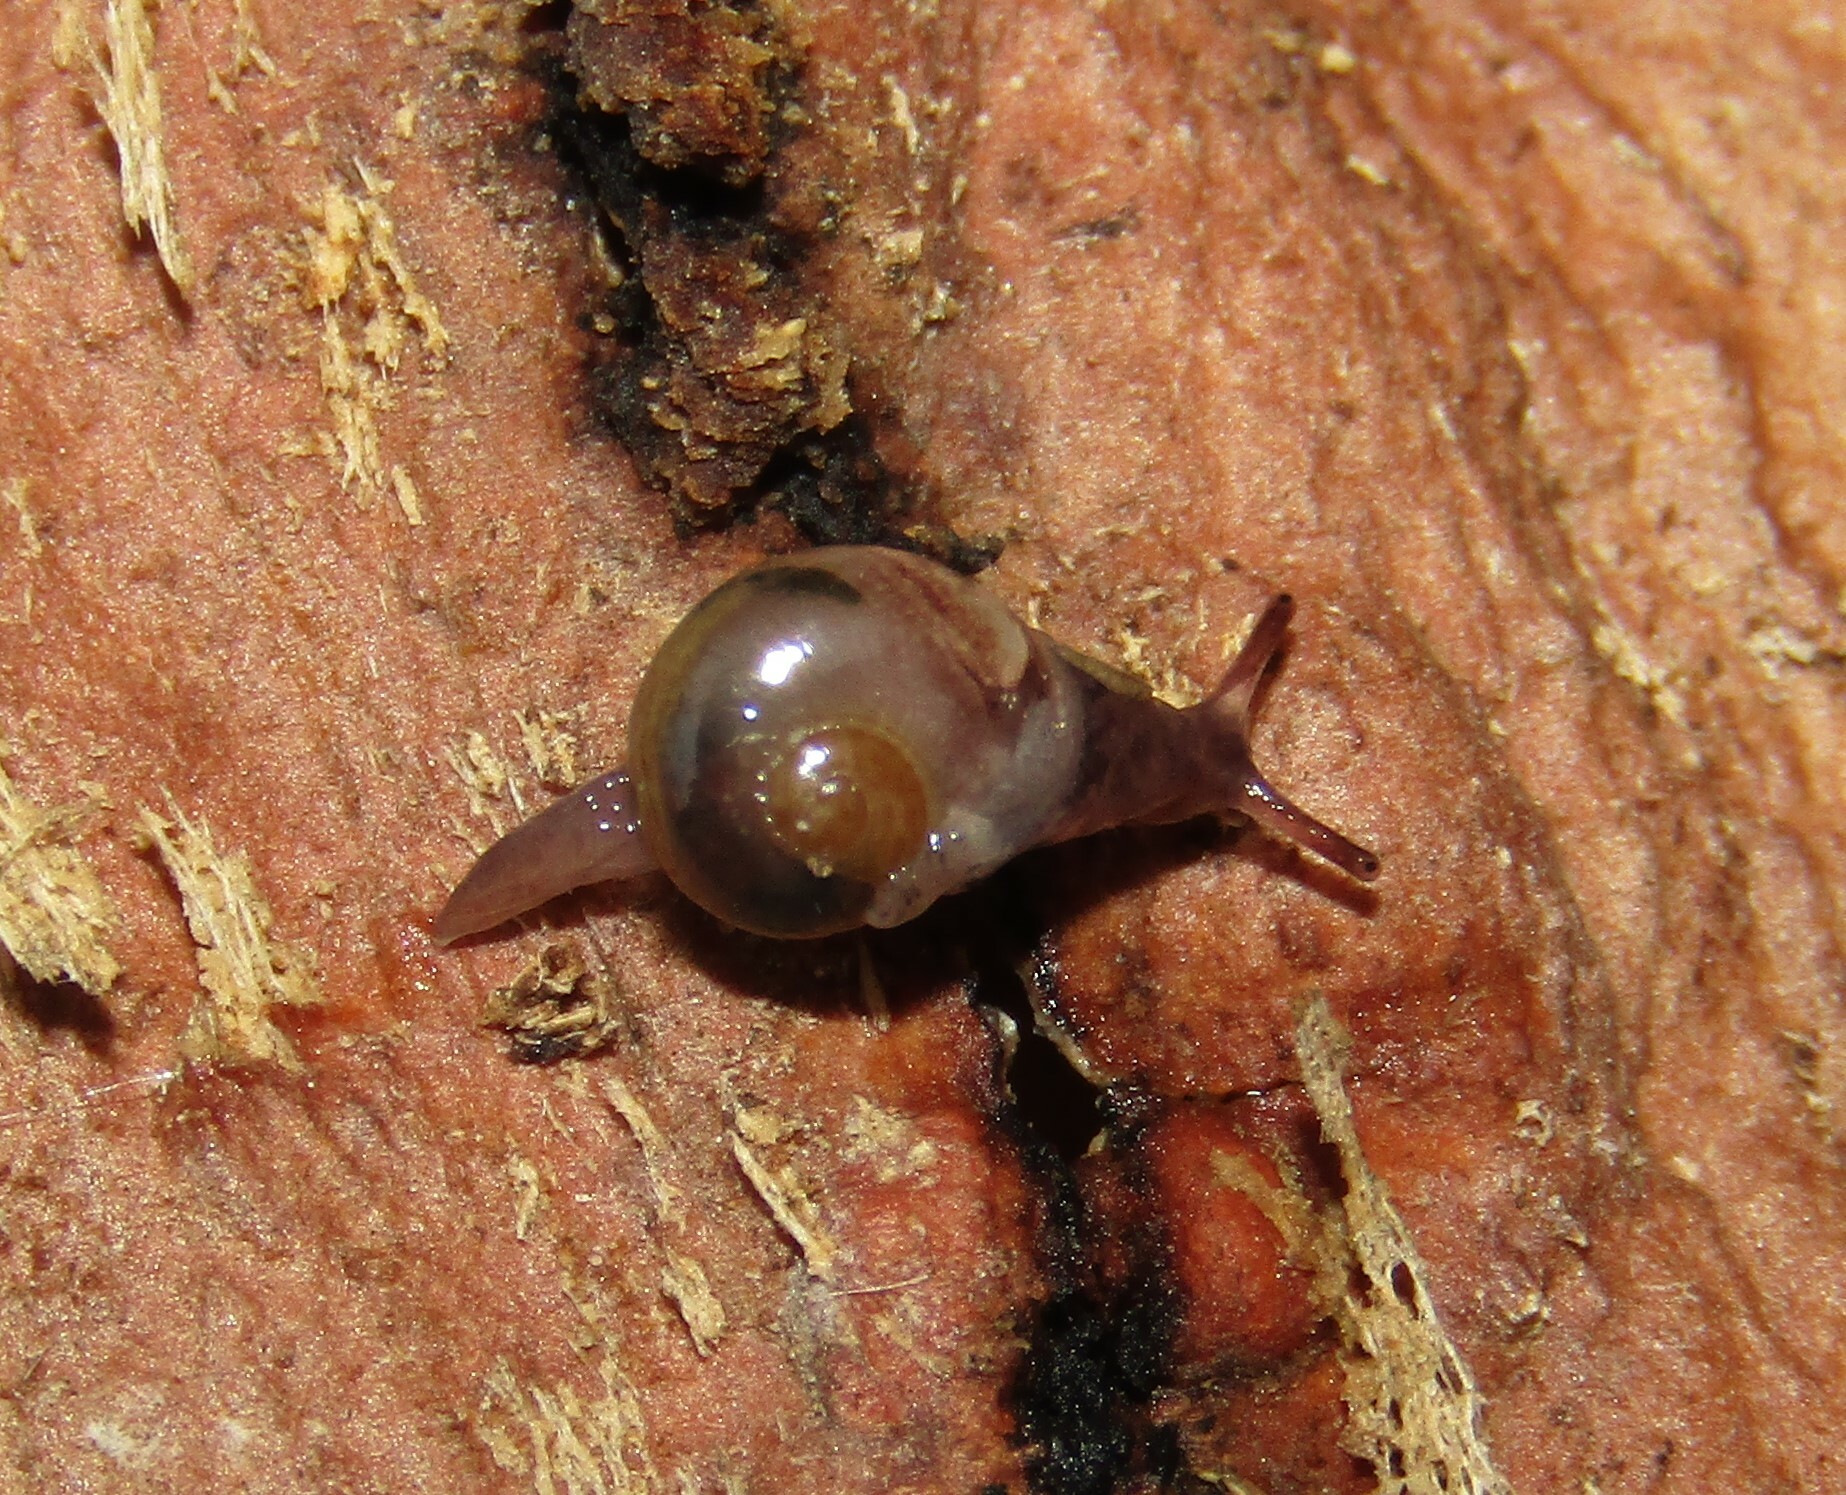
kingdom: Animalia
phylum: Mollusca
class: Gastropoda
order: Stylommatophora
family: Vitrinidae
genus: Vitrina
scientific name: Vitrina pellucida
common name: Pellucid glass snail
